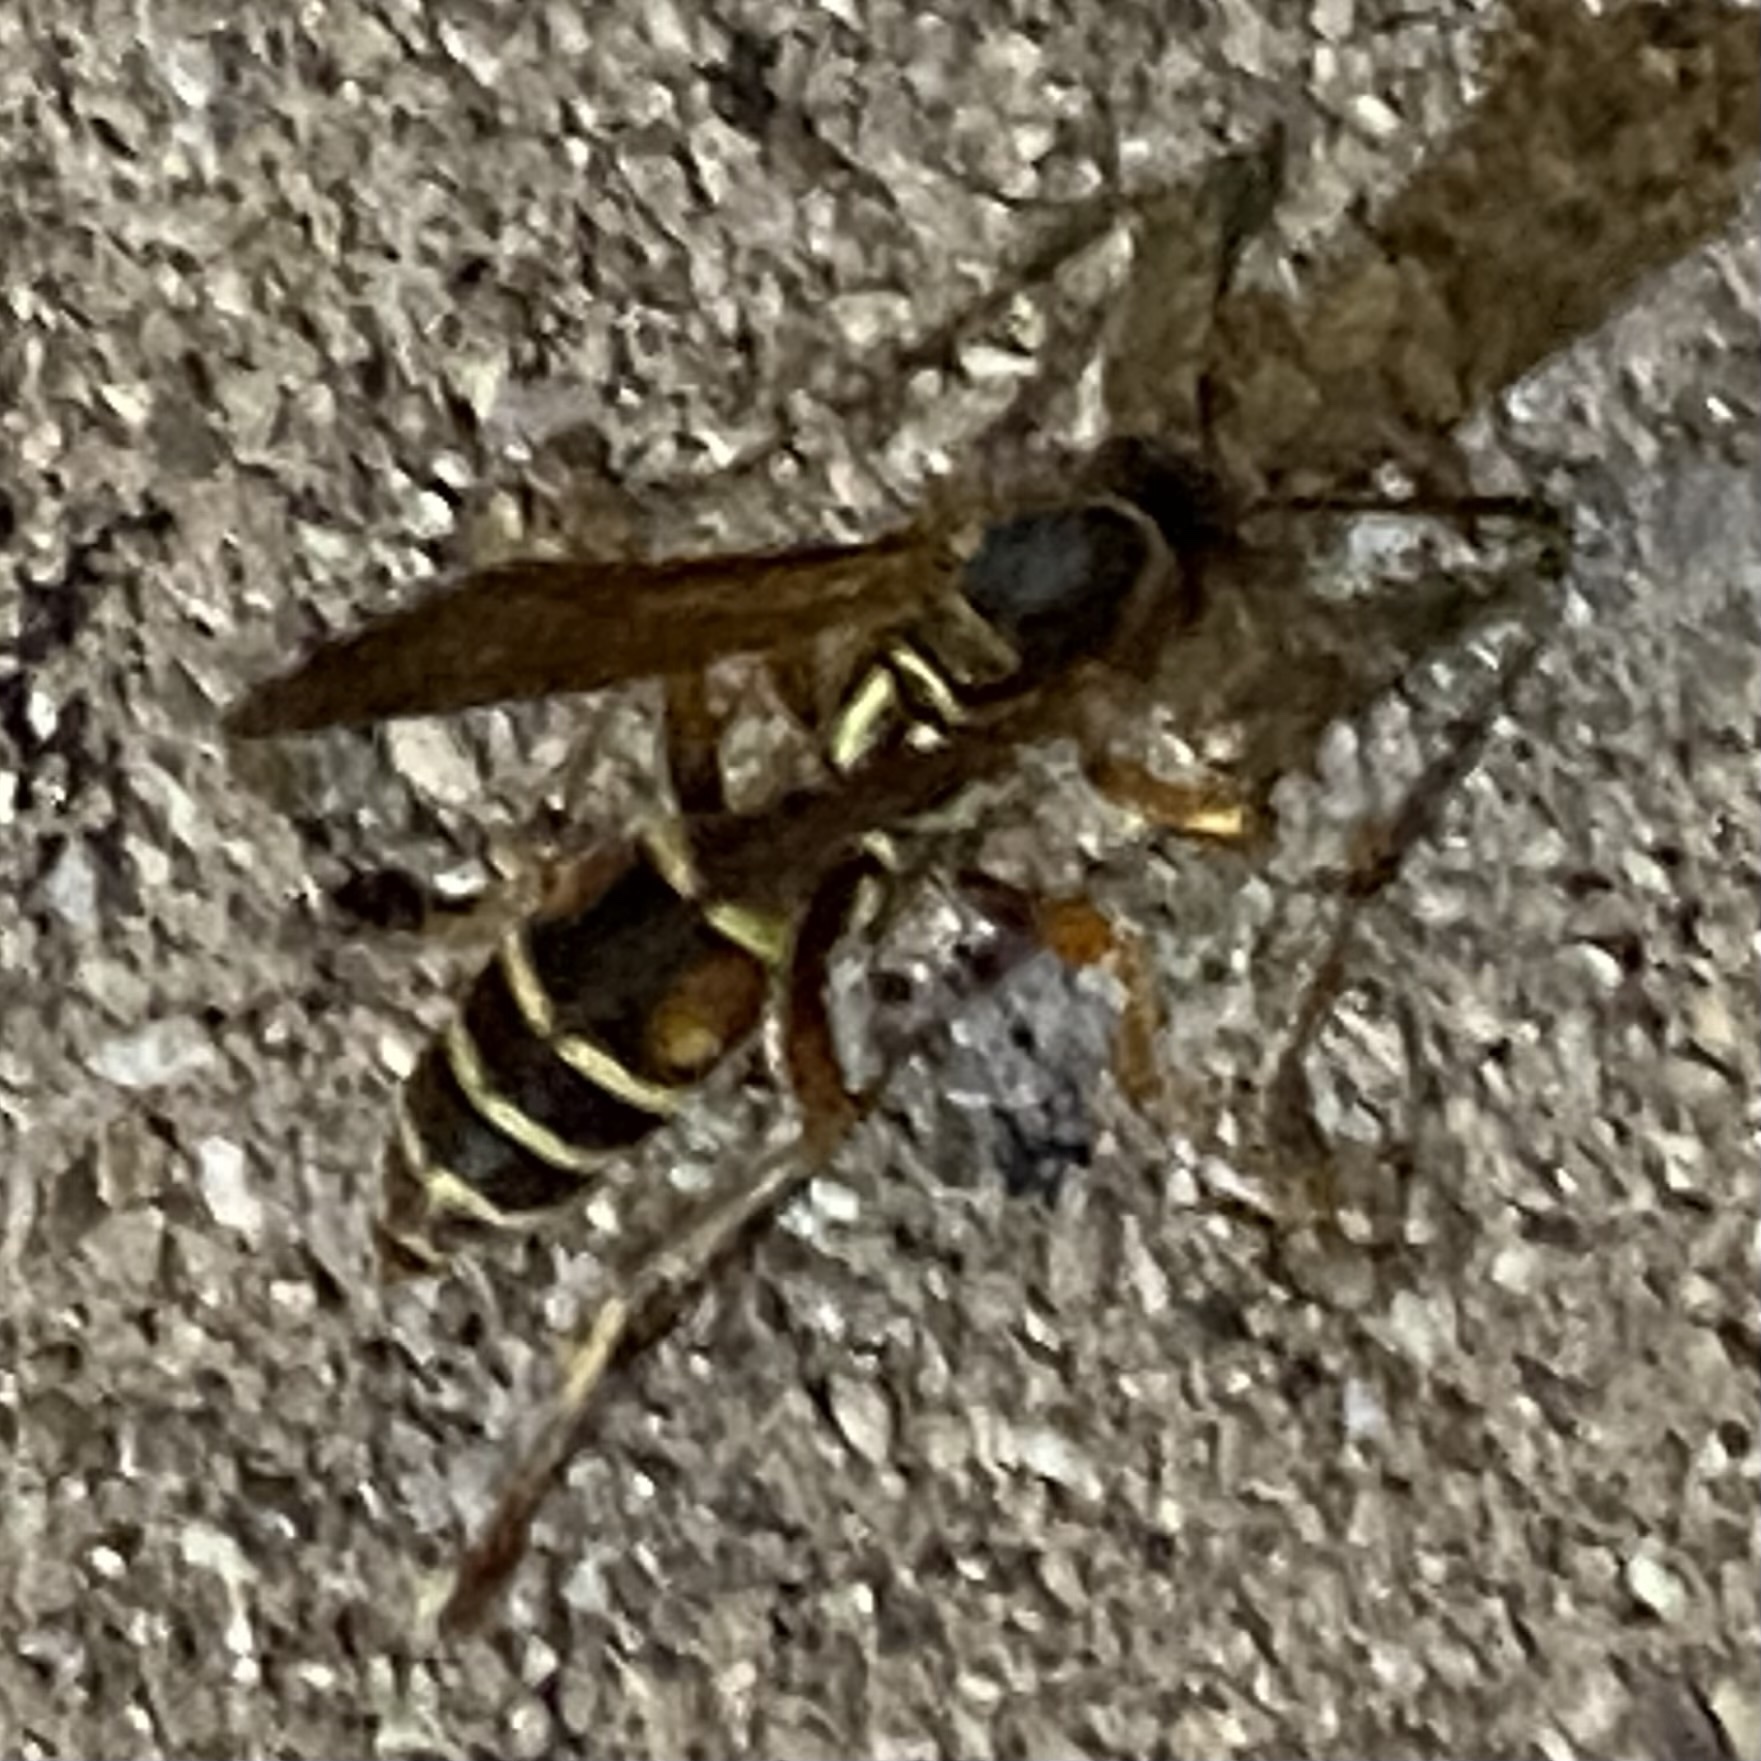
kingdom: Animalia
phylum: Arthropoda
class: Insecta
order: Hymenoptera
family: Eumenidae
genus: Polistes
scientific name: Polistes fuscatus
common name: Dark paper wasp
